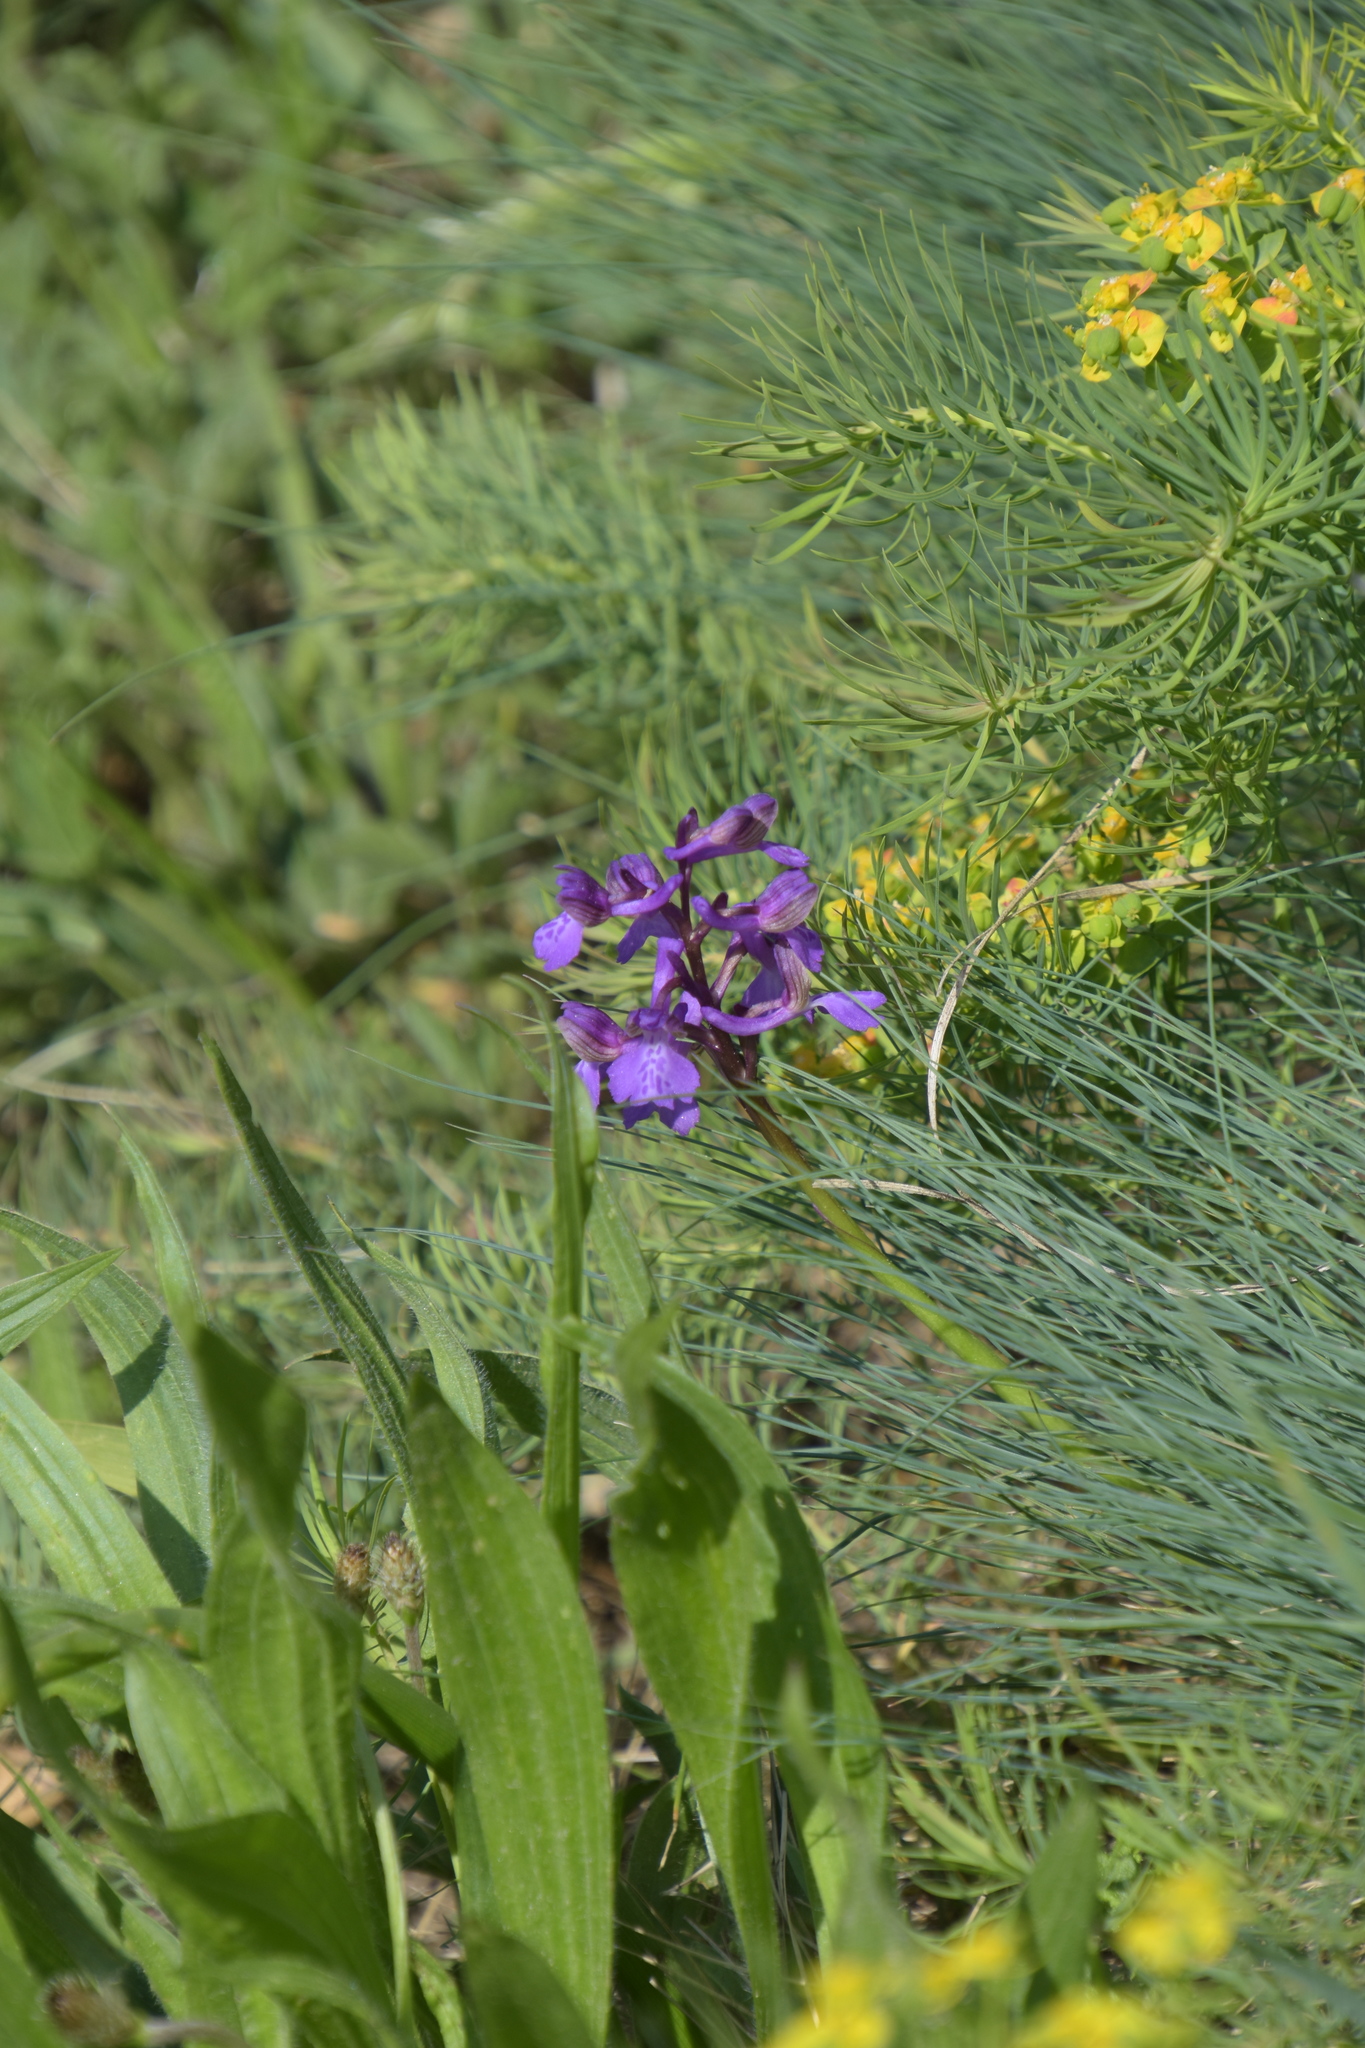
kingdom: Plantae
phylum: Tracheophyta
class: Liliopsida
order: Asparagales
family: Orchidaceae
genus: Anacamptis
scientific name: Anacamptis morio
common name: Green-winged orchid
